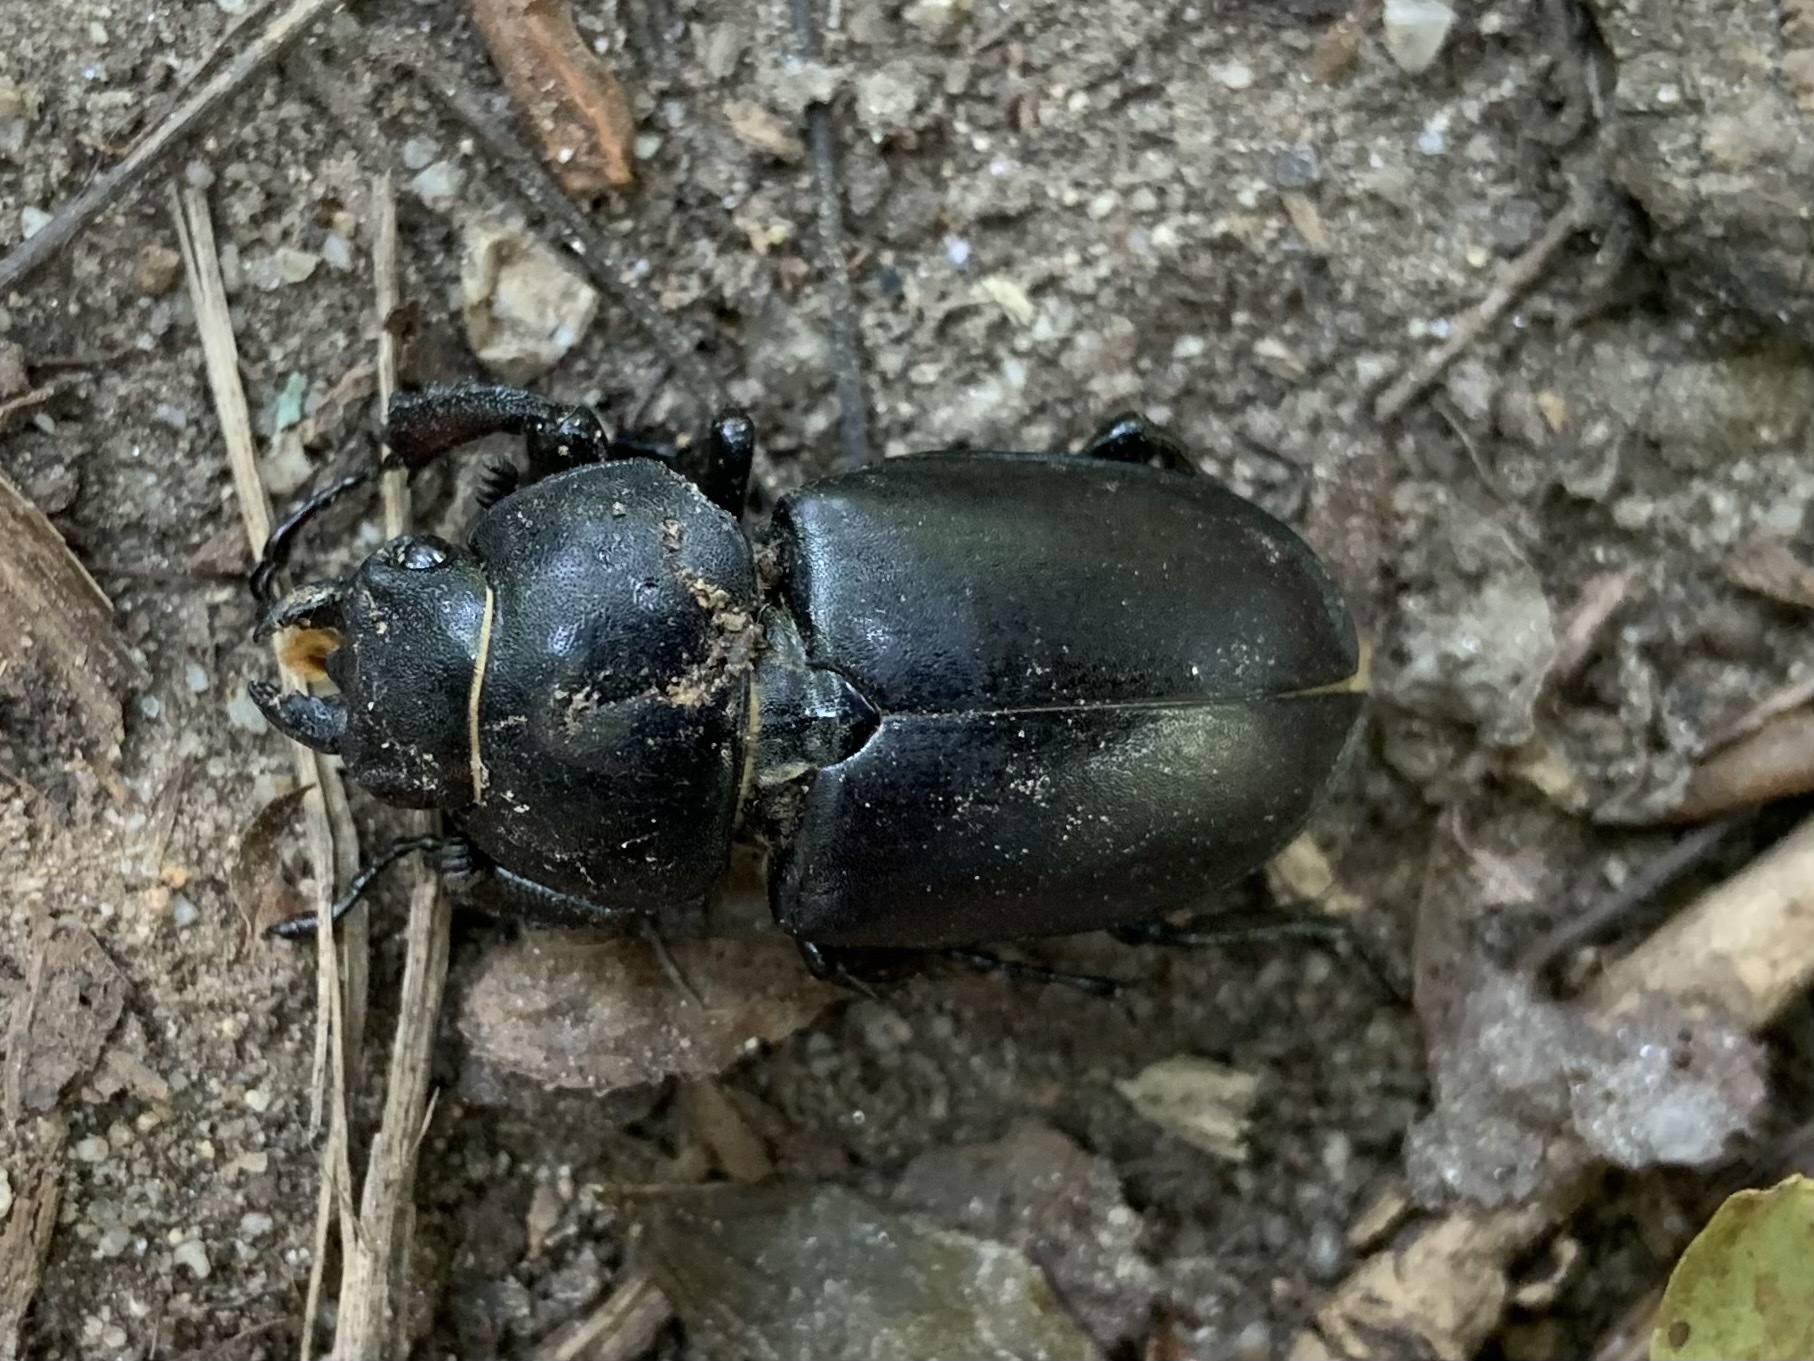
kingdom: Animalia
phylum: Arthropoda
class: Insecta
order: Coleoptera
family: Lucanidae
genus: Lucanus
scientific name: Lucanus cervus
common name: Stag beetle
